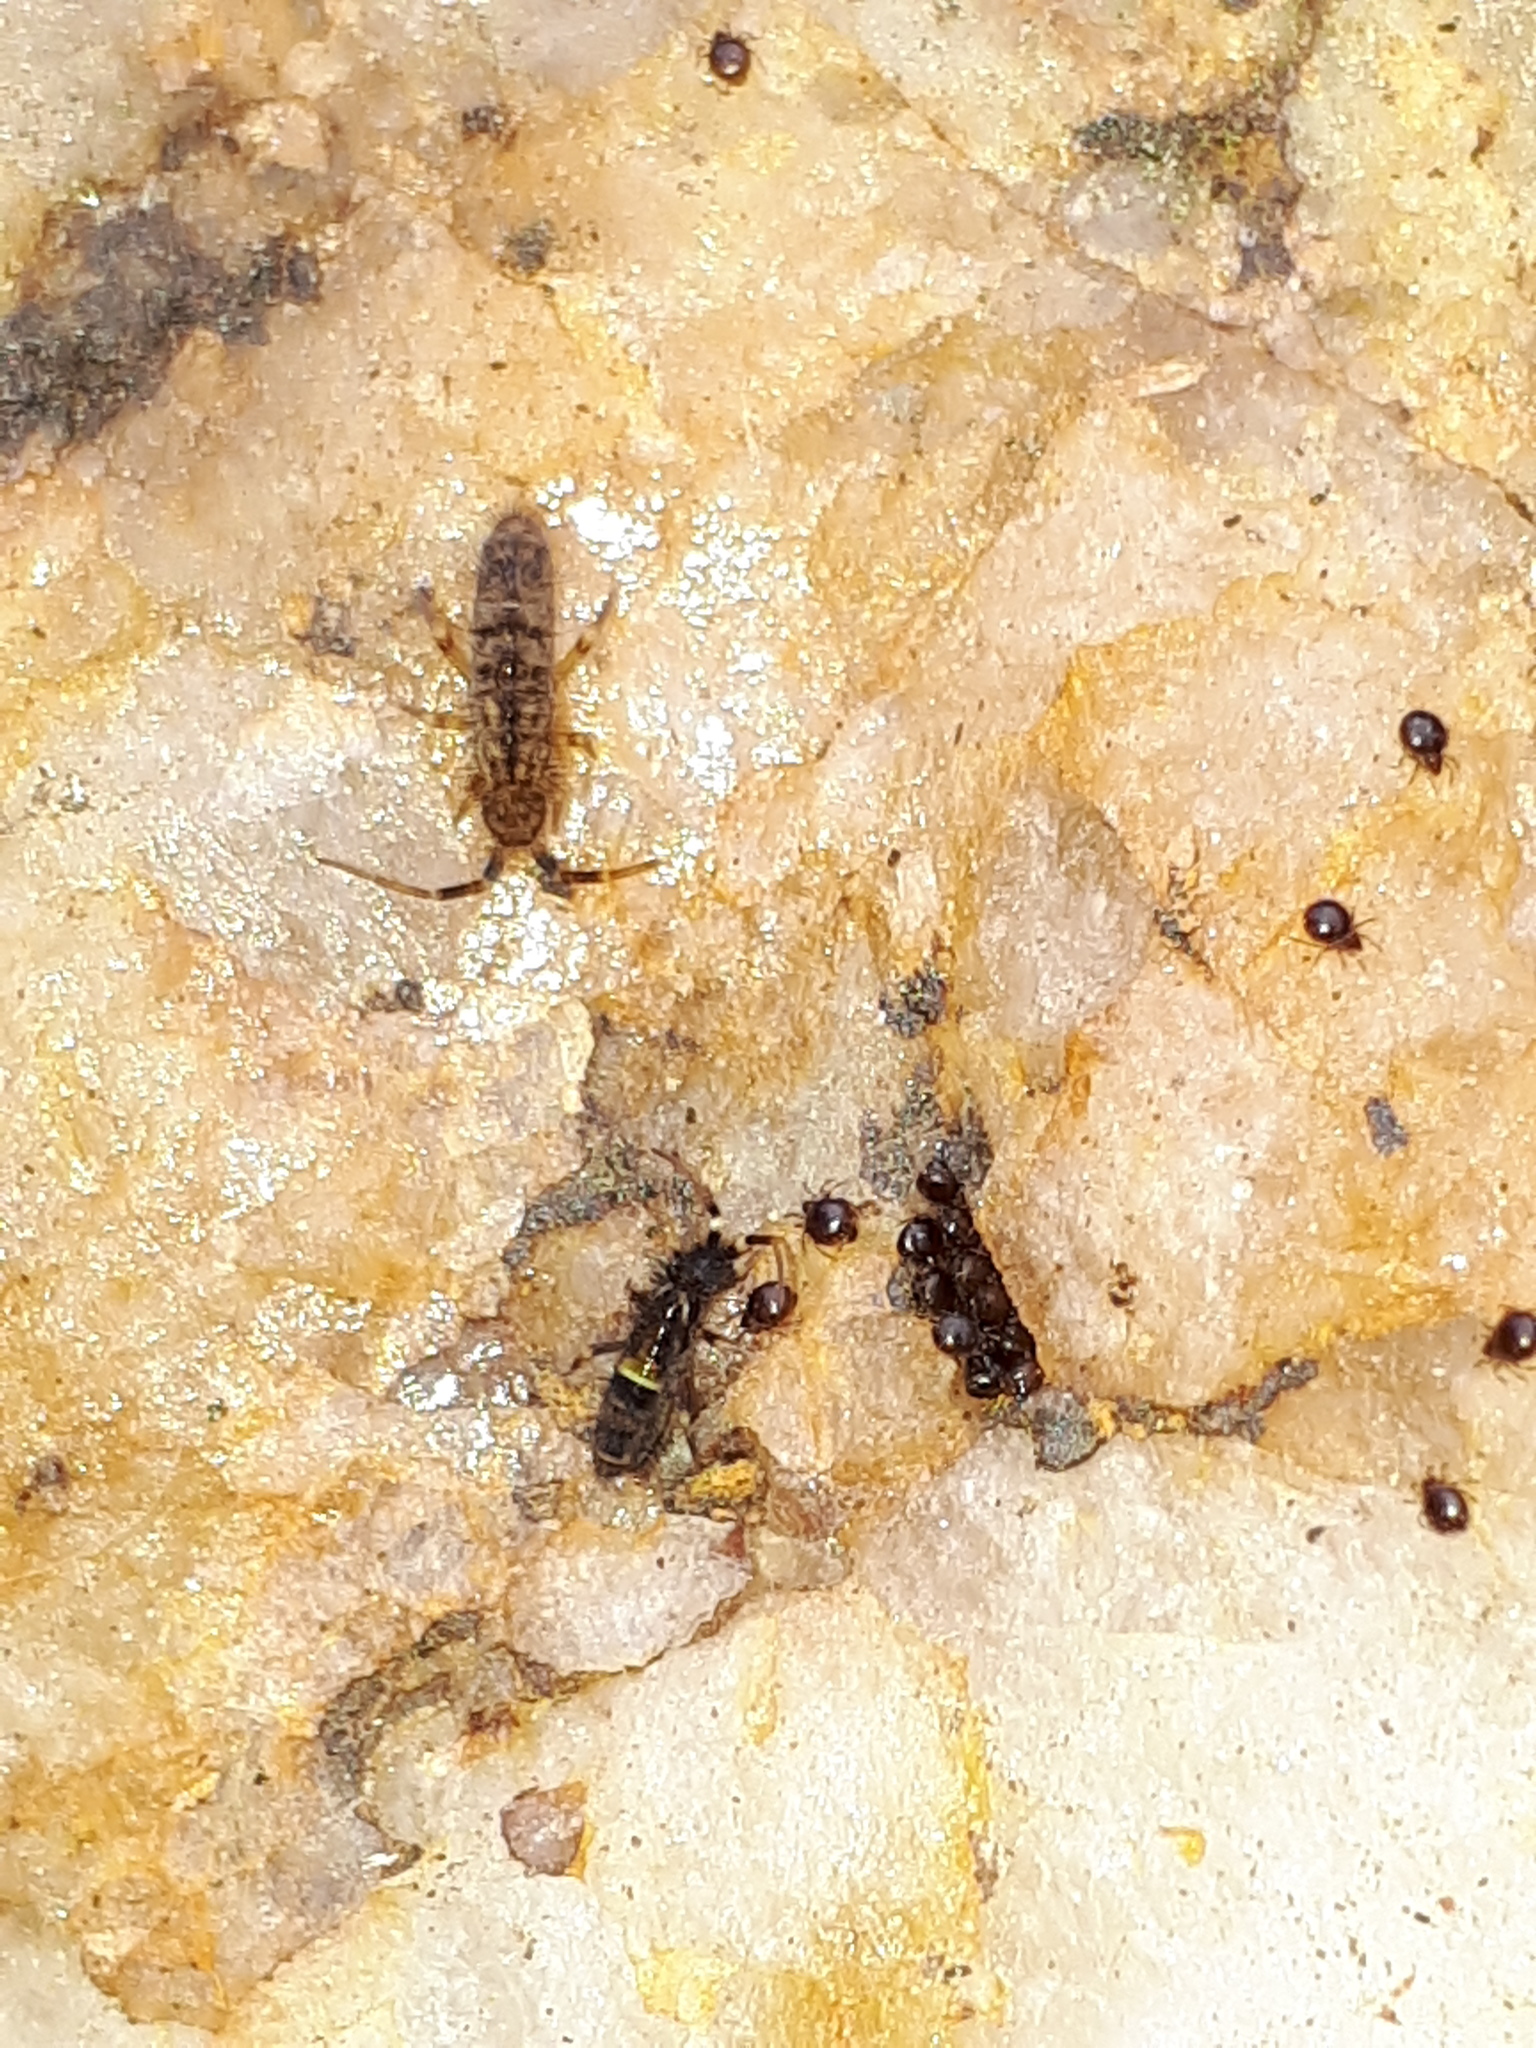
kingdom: Animalia
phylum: Arthropoda
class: Collembola
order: Entomobryomorpha
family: Orchesellidae
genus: Orchesella
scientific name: Orchesella cincta
